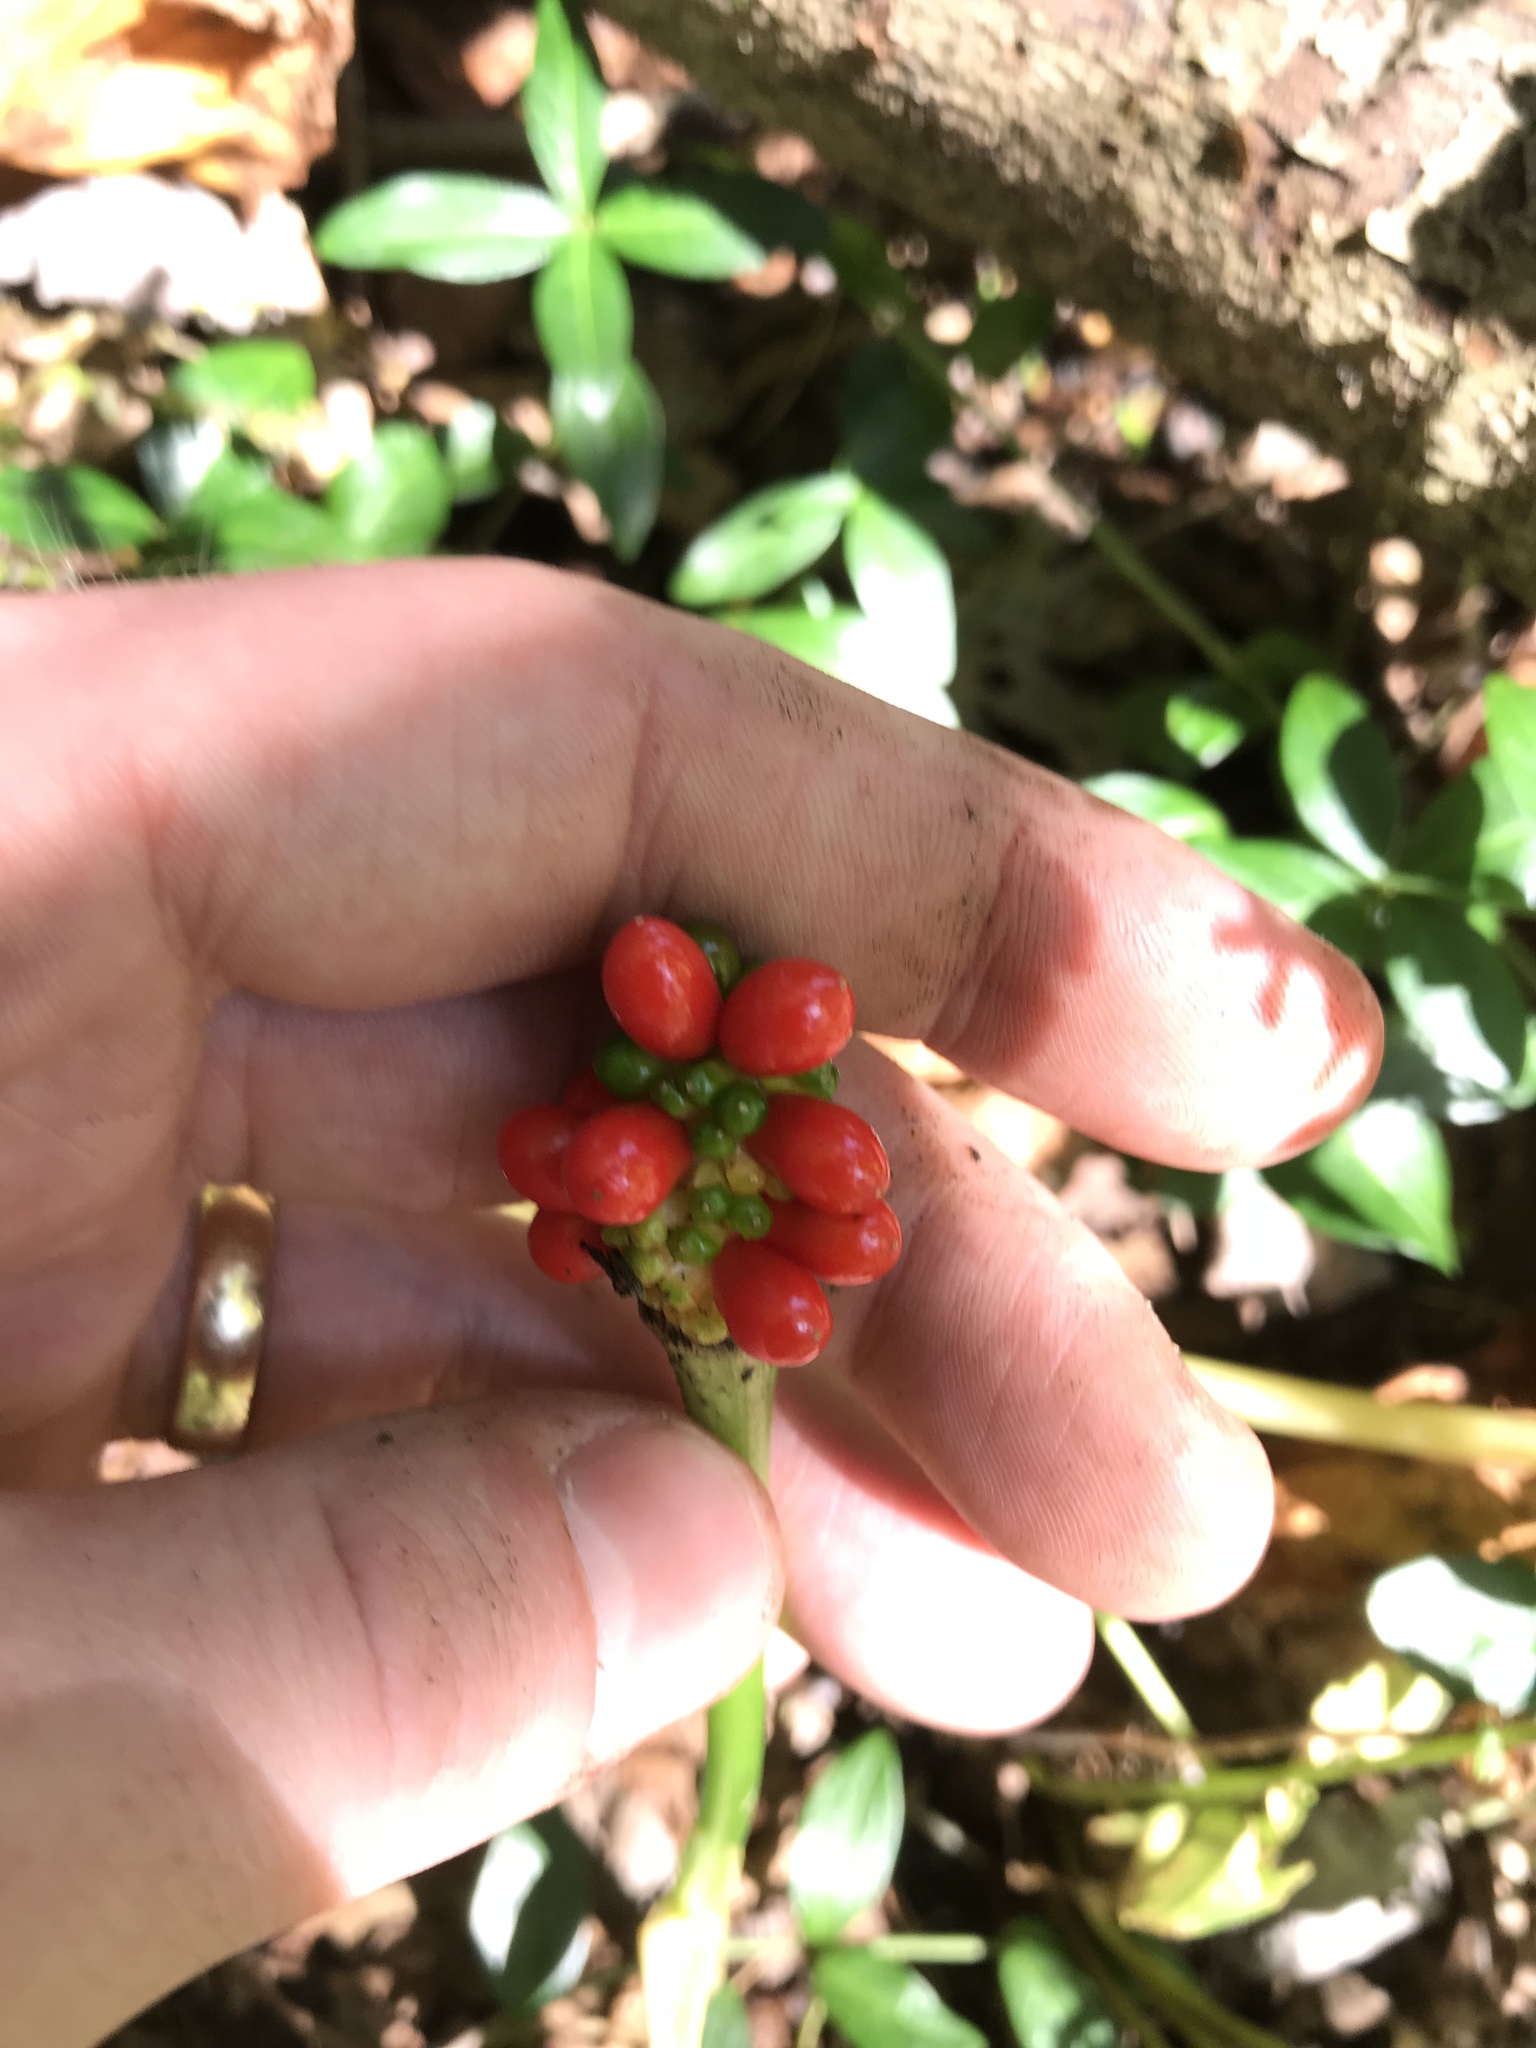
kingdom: Plantae
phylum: Tracheophyta
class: Liliopsida
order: Alismatales
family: Araceae
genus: Arisaema
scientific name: Arisaema triphyllum
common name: Jack-in-the-pulpit
